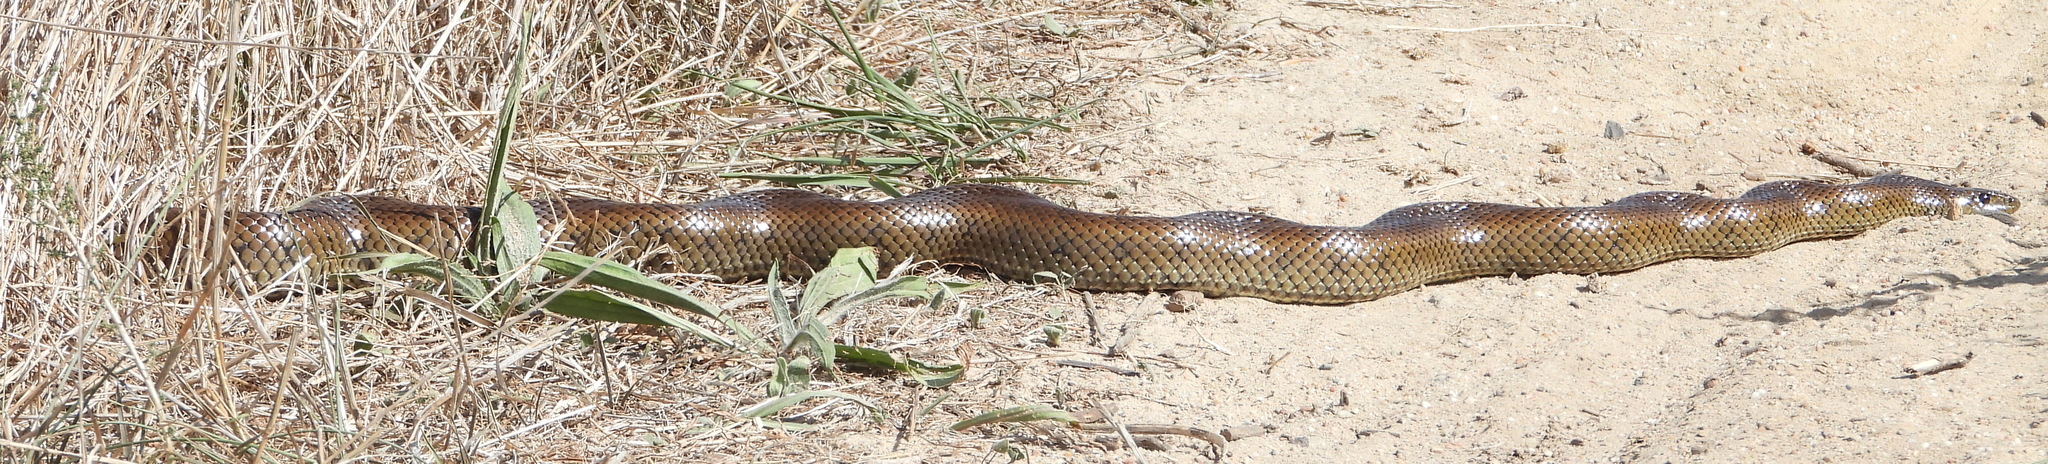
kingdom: Animalia
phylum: Chordata
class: Squamata
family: Pseudaspididae
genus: Pseudaspis
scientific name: Pseudaspis cana
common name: Mole snake
